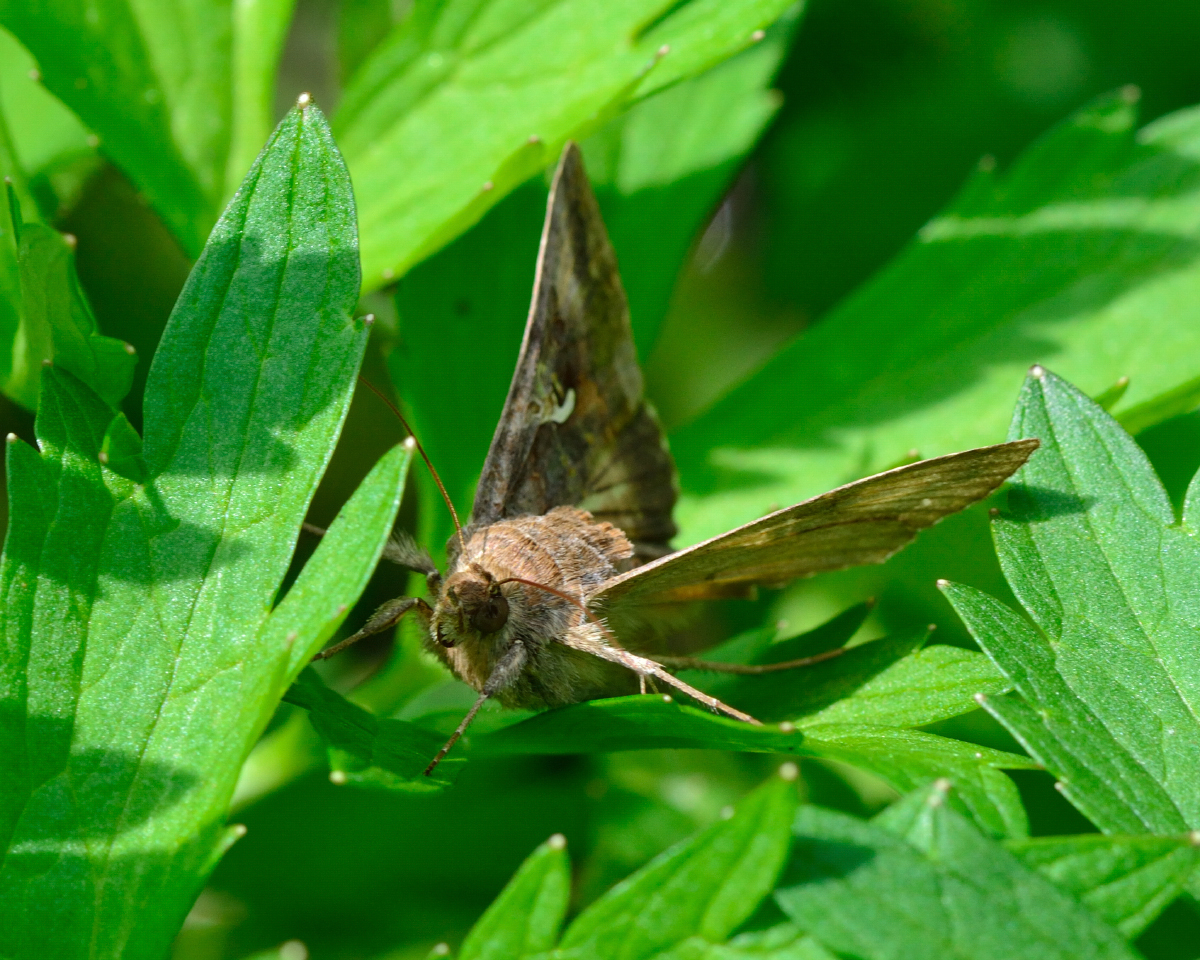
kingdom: Animalia
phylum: Arthropoda
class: Insecta
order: Lepidoptera
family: Noctuidae
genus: Autographa
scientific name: Autographa gamma
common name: Silver y
